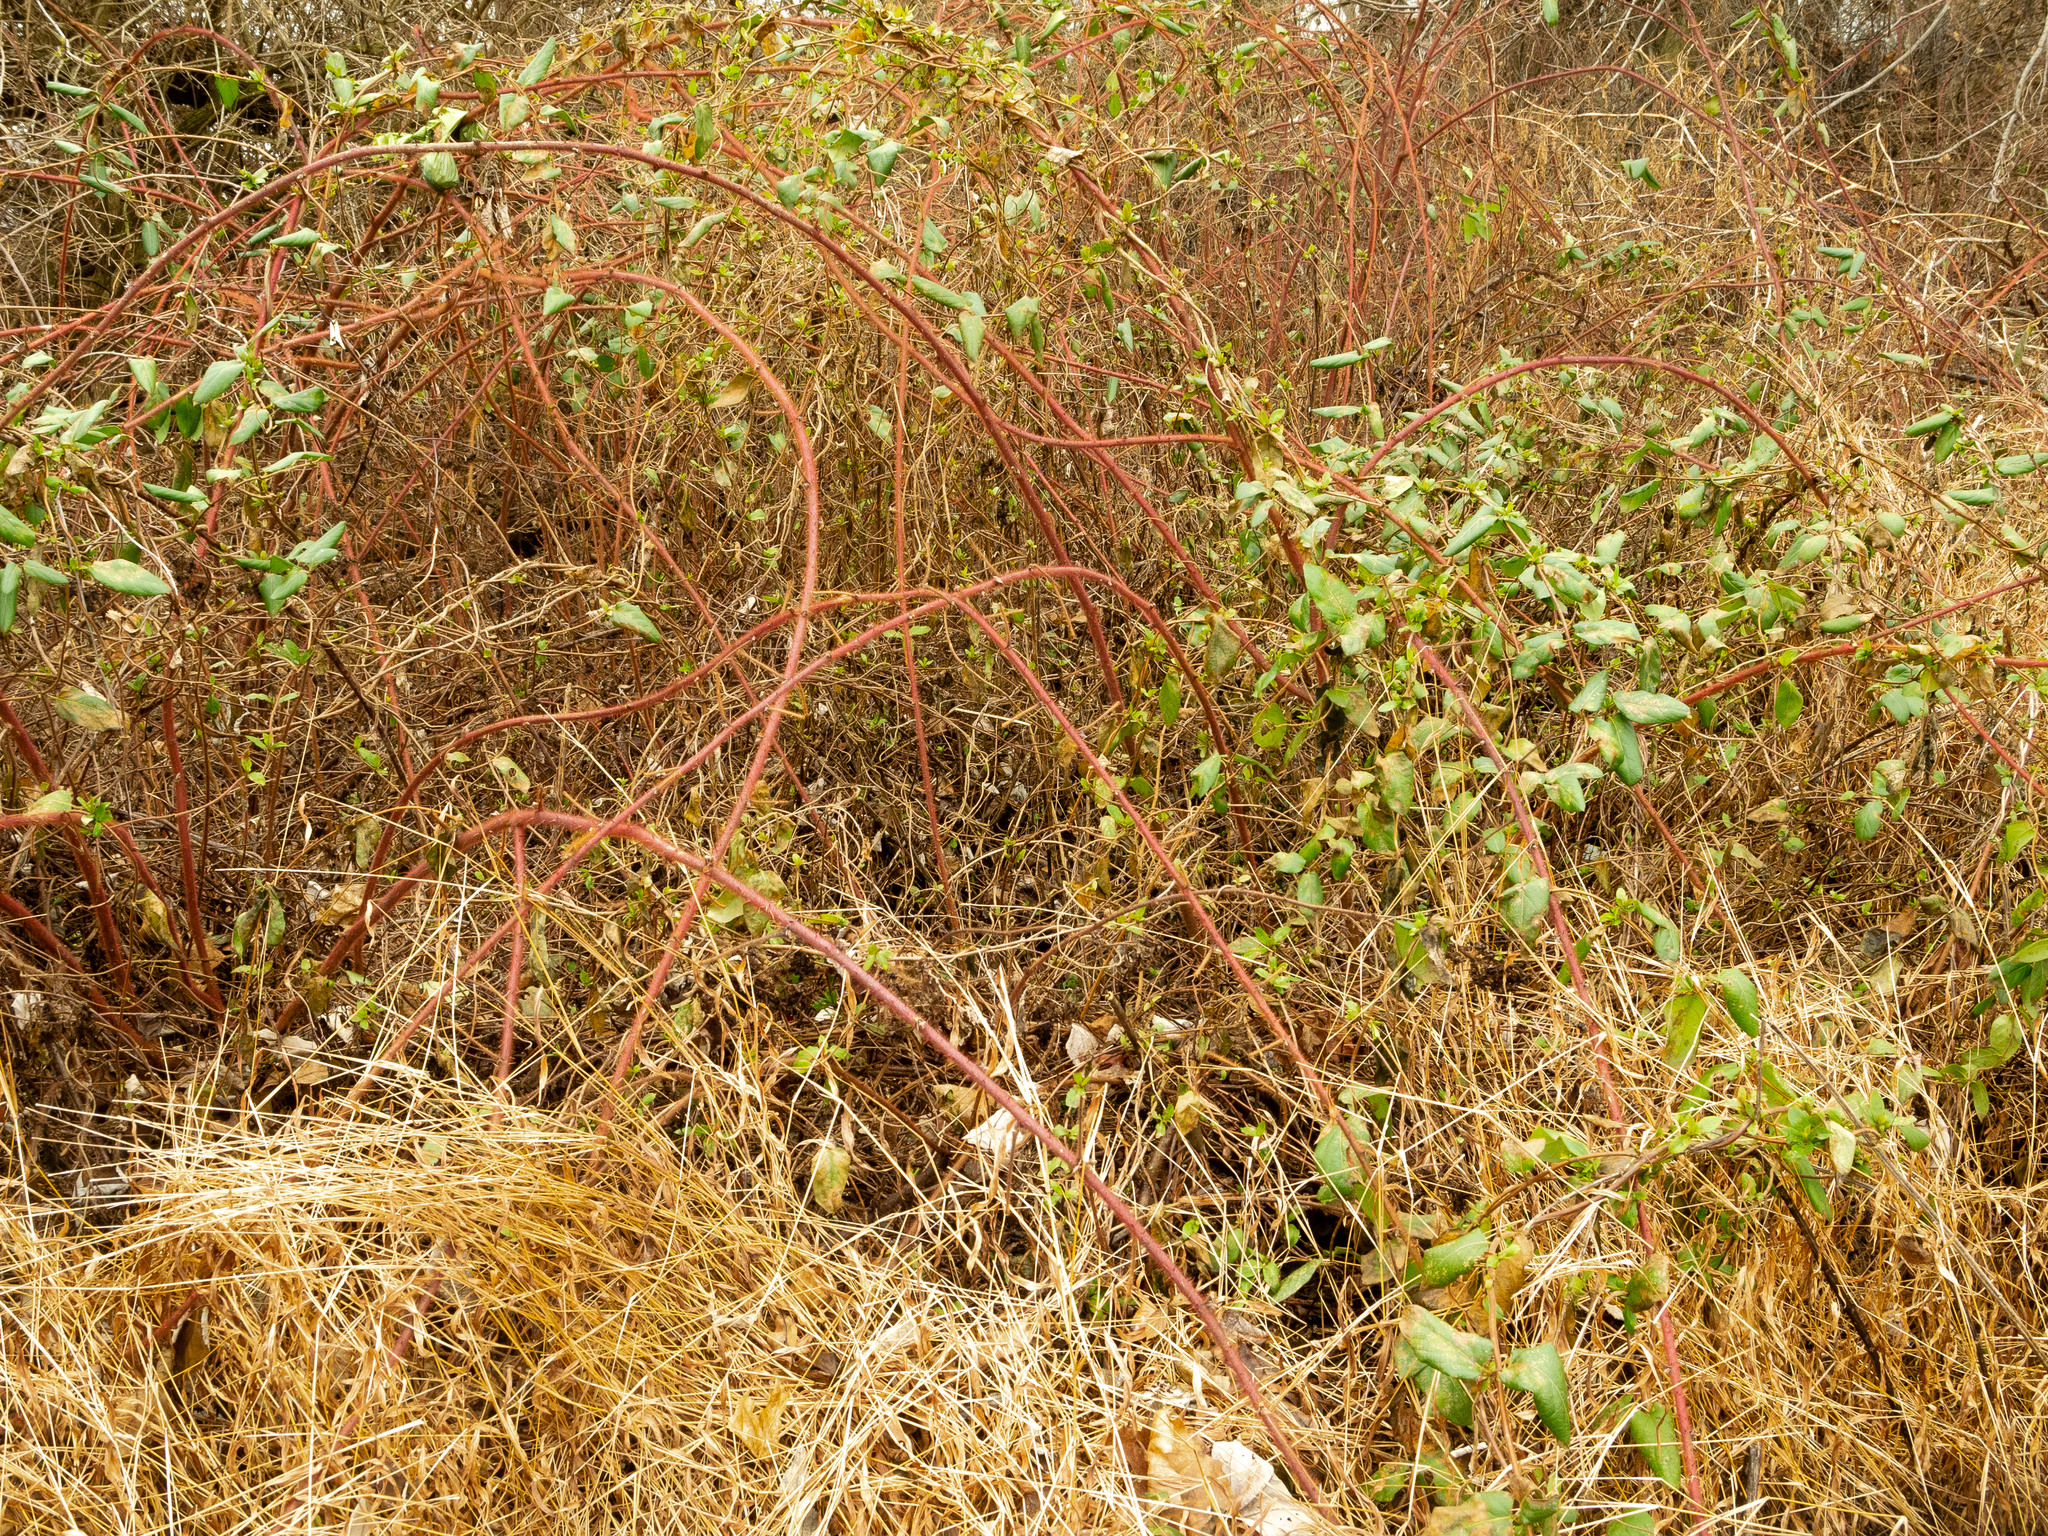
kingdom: Plantae
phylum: Tracheophyta
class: Magnoliopsida
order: Rosales
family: Rosaceae
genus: Rubus
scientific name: Rubus phoenicolasius
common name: Japanese wineberry
